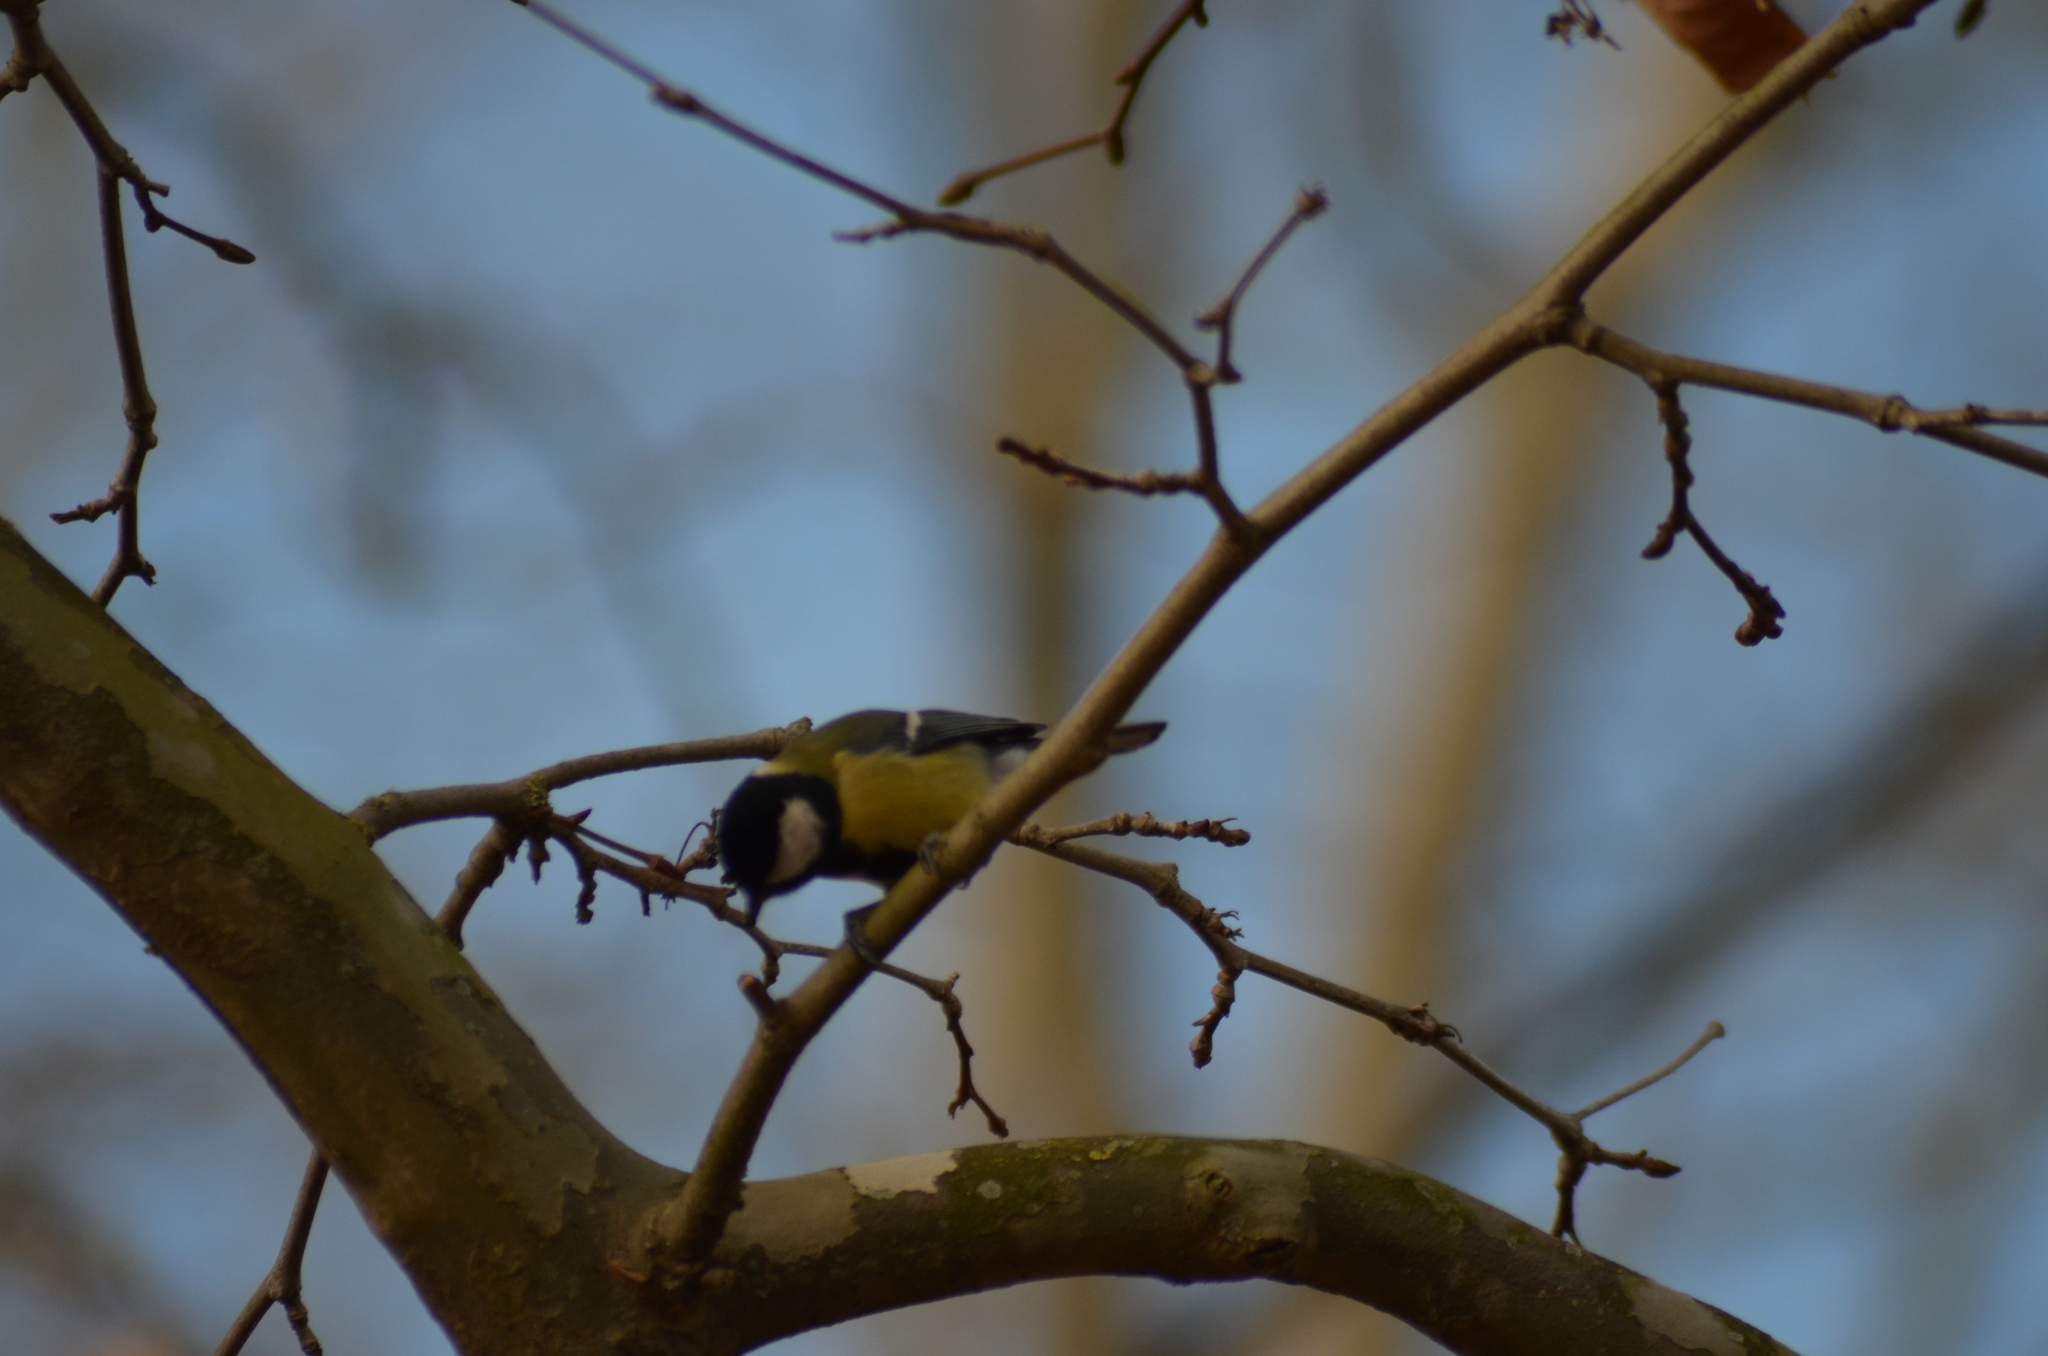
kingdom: Animalia
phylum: Chordata
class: Aves
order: Passeriformes
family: Paridae
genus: Parus
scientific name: Parus major
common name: Great tit
